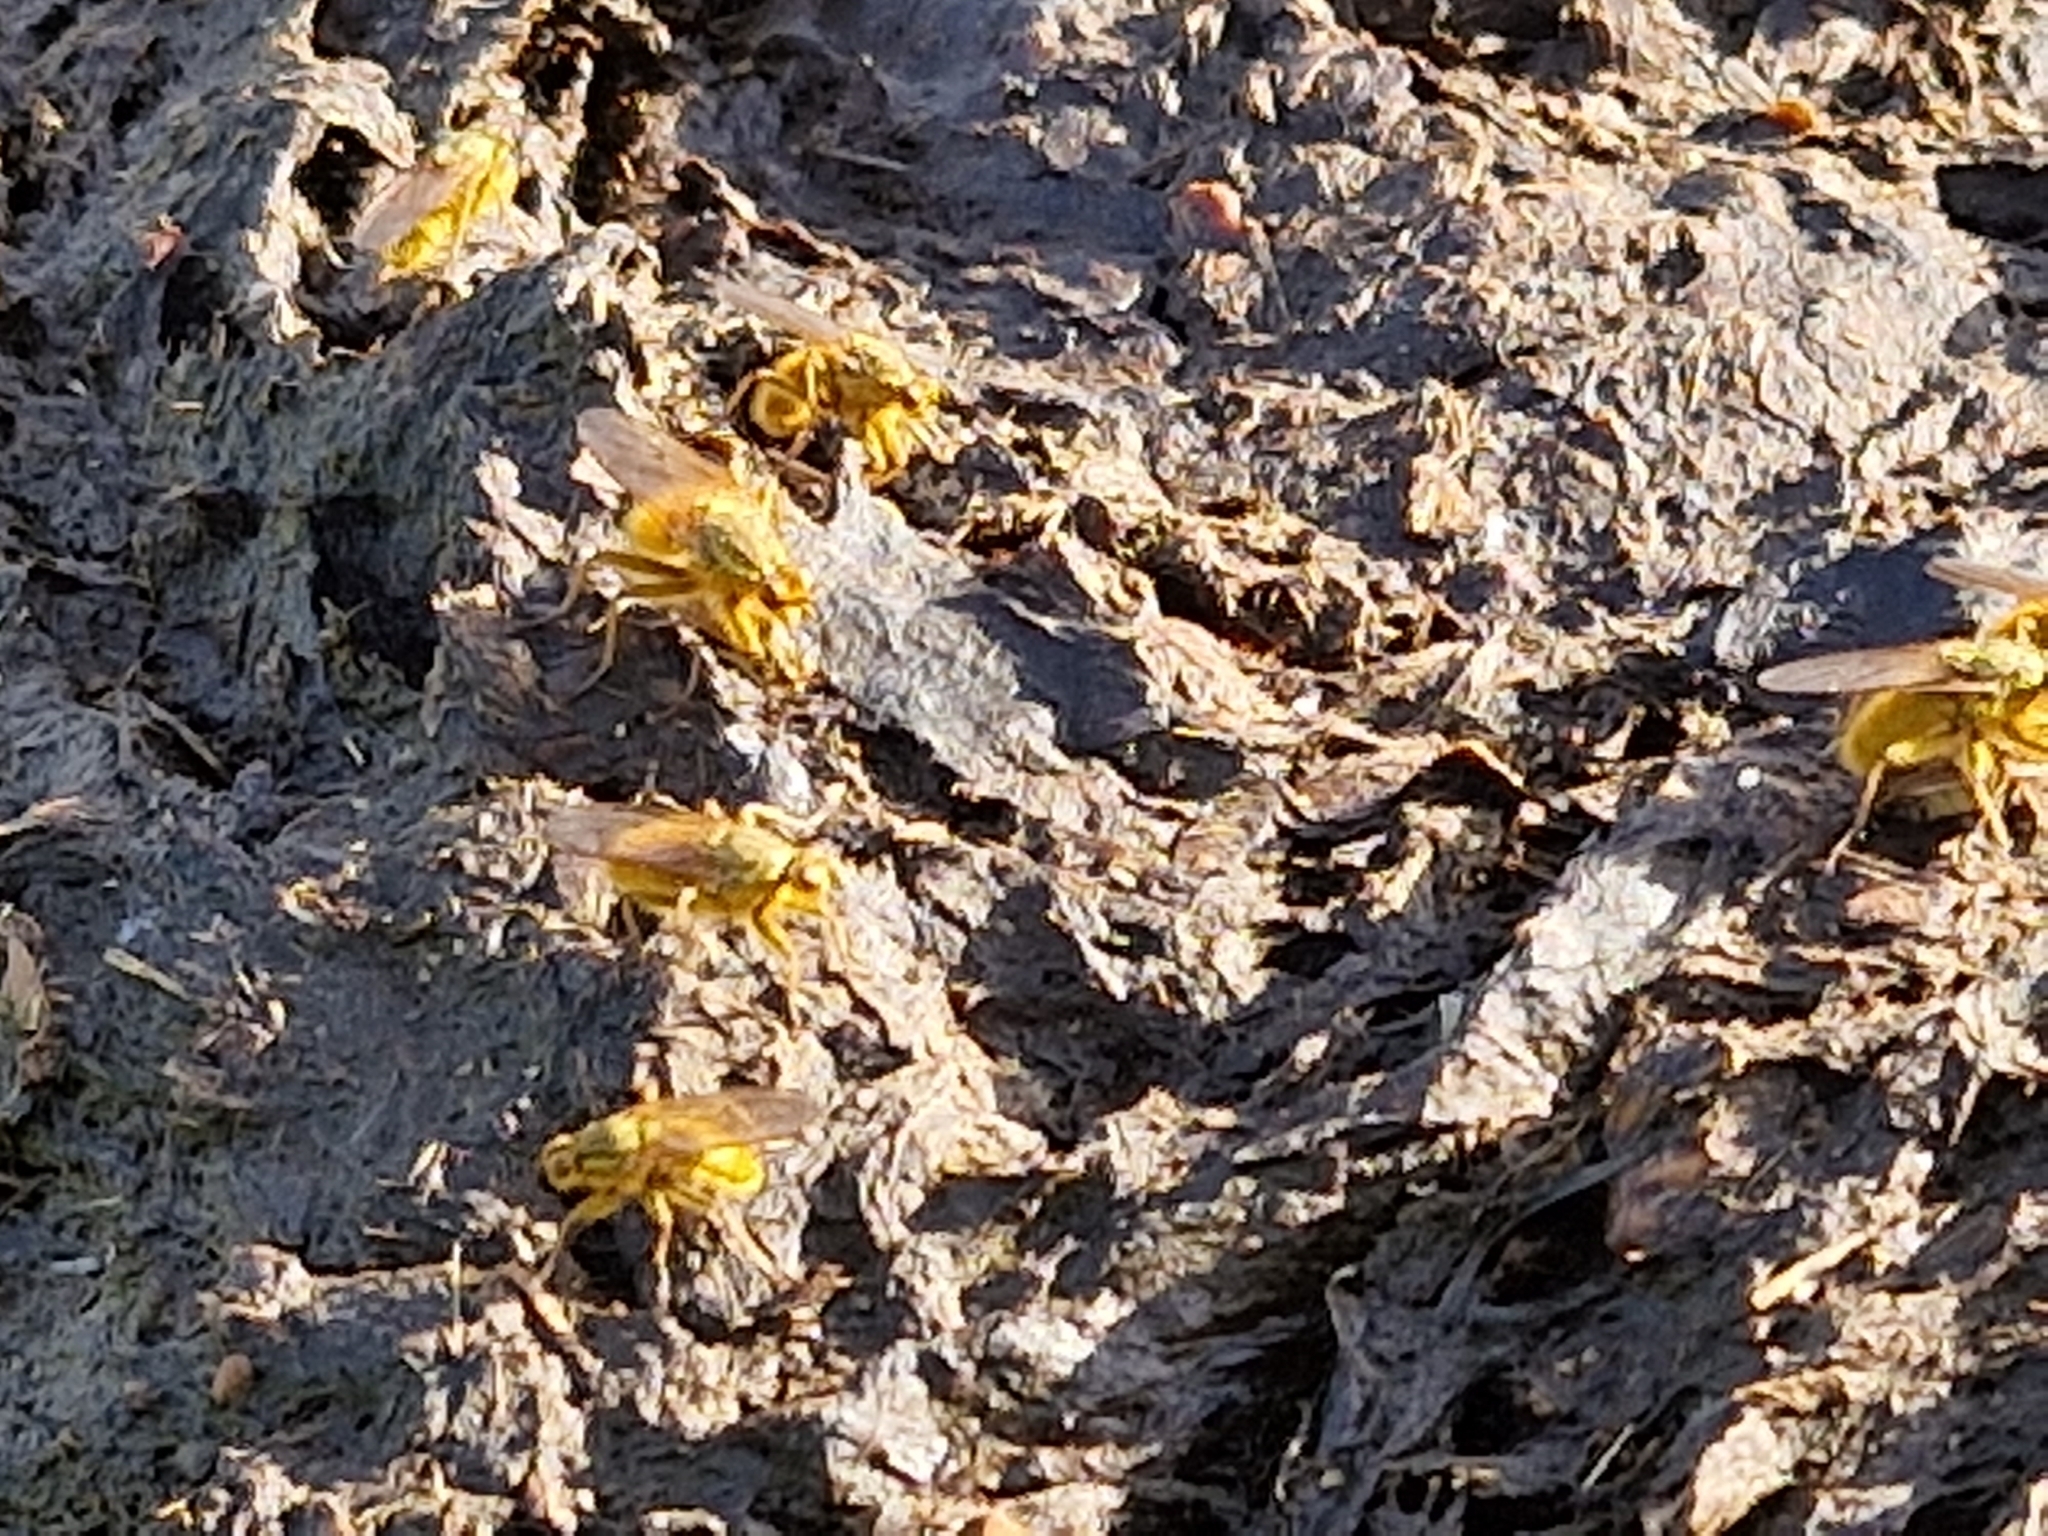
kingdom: Animalia
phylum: Arthropoda
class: Insecta
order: Diptera
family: Scathophagidae
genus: Scathophaga
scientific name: Scathophaga stercoraria
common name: Yellow dung fly
